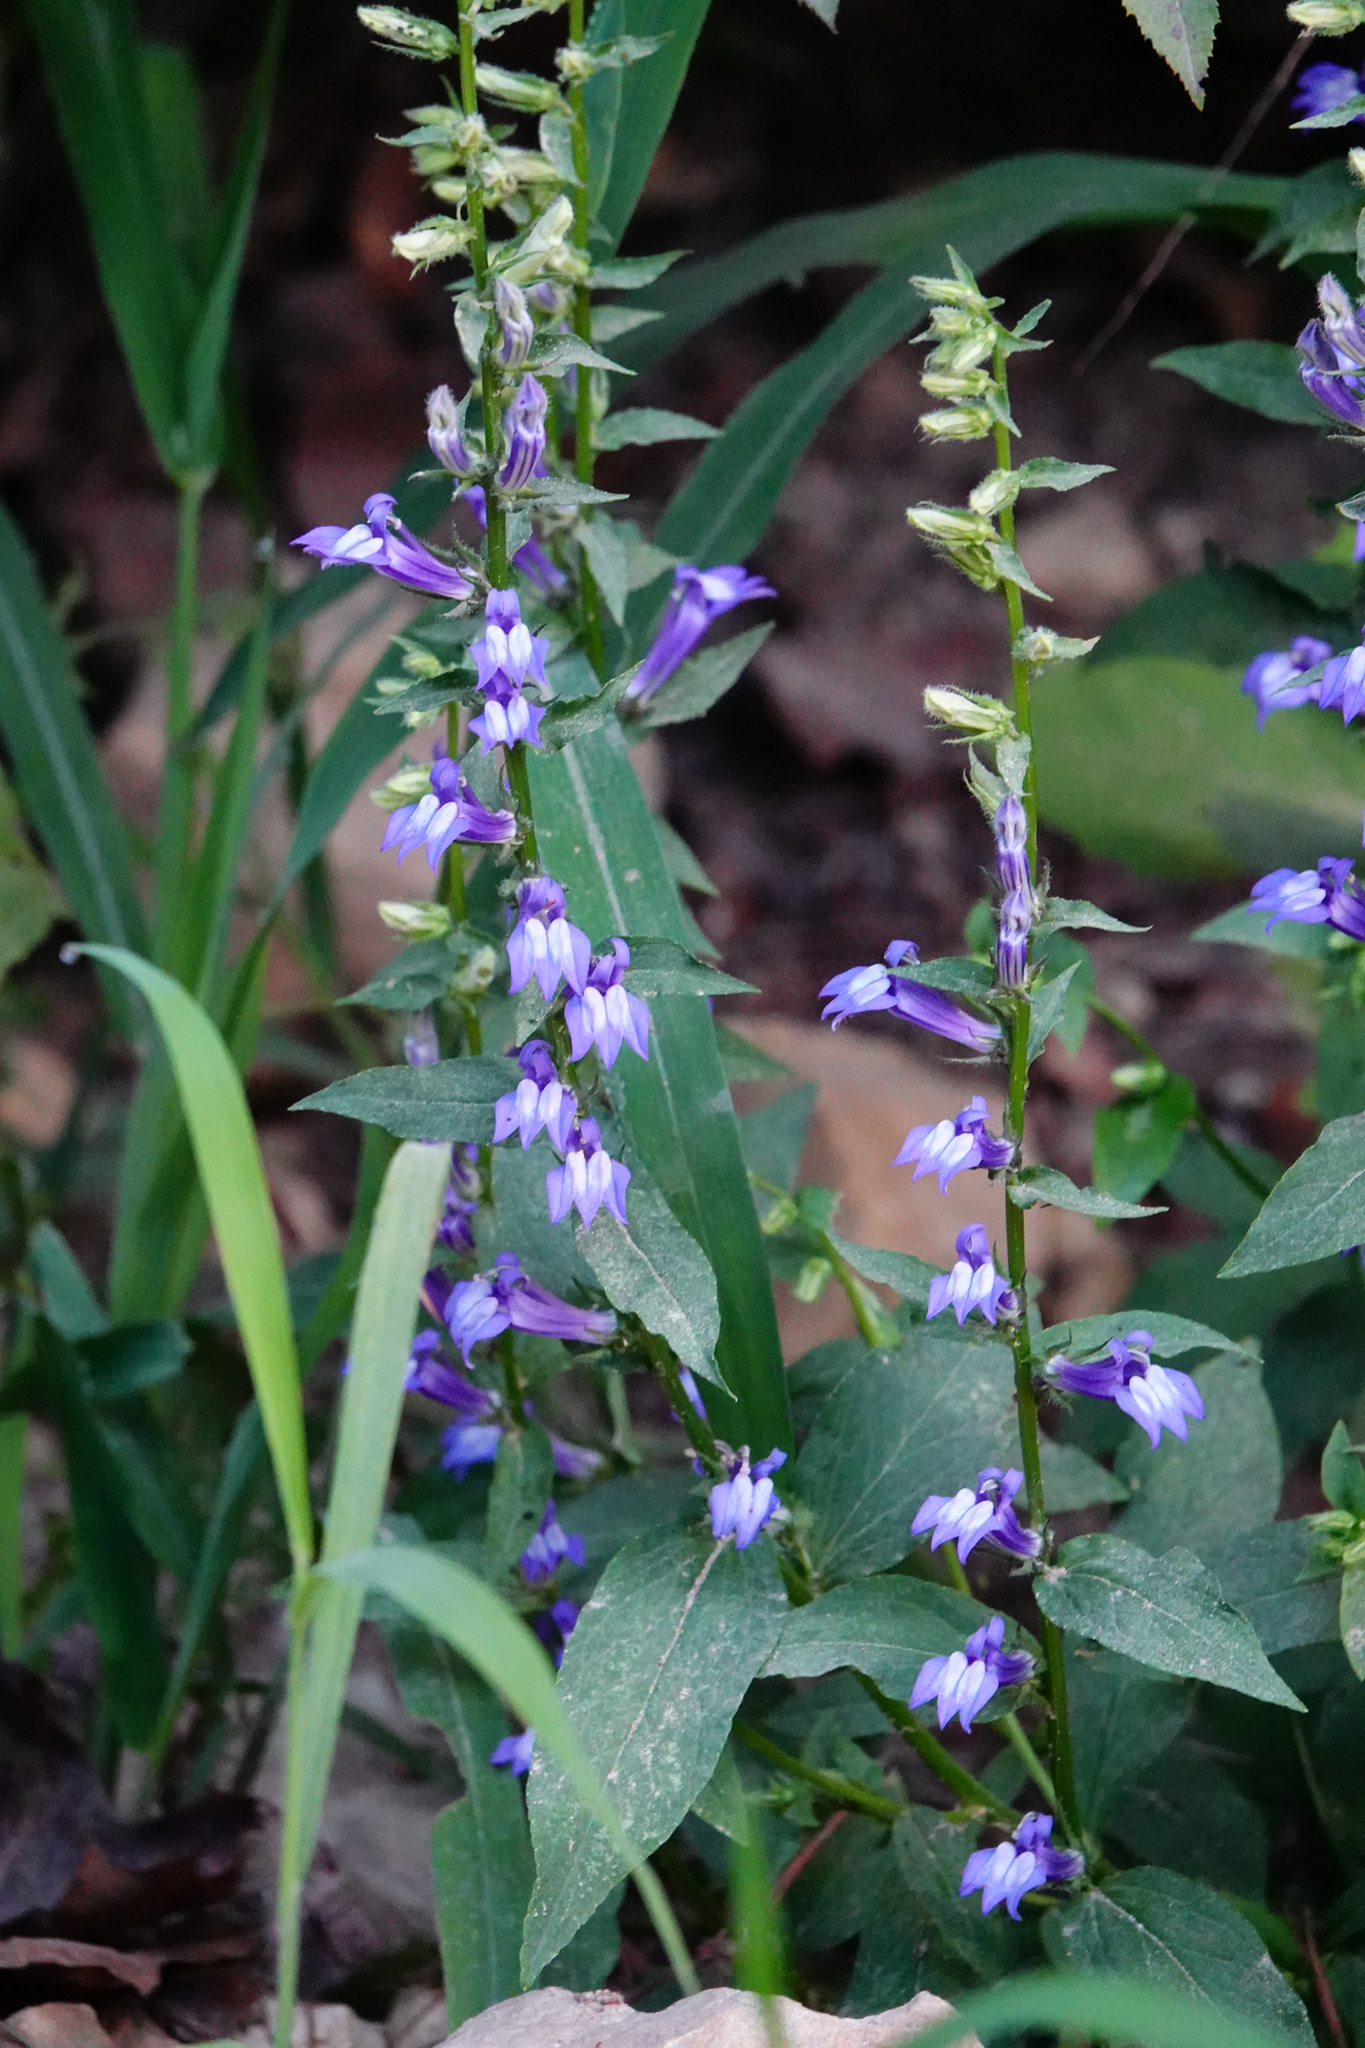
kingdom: Plantae
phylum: Tracheophyta
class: Magnoliopsida
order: Asterales
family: Campanulaceae
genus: Lobelia
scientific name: Lobelia siphilitica
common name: Great lobelia
